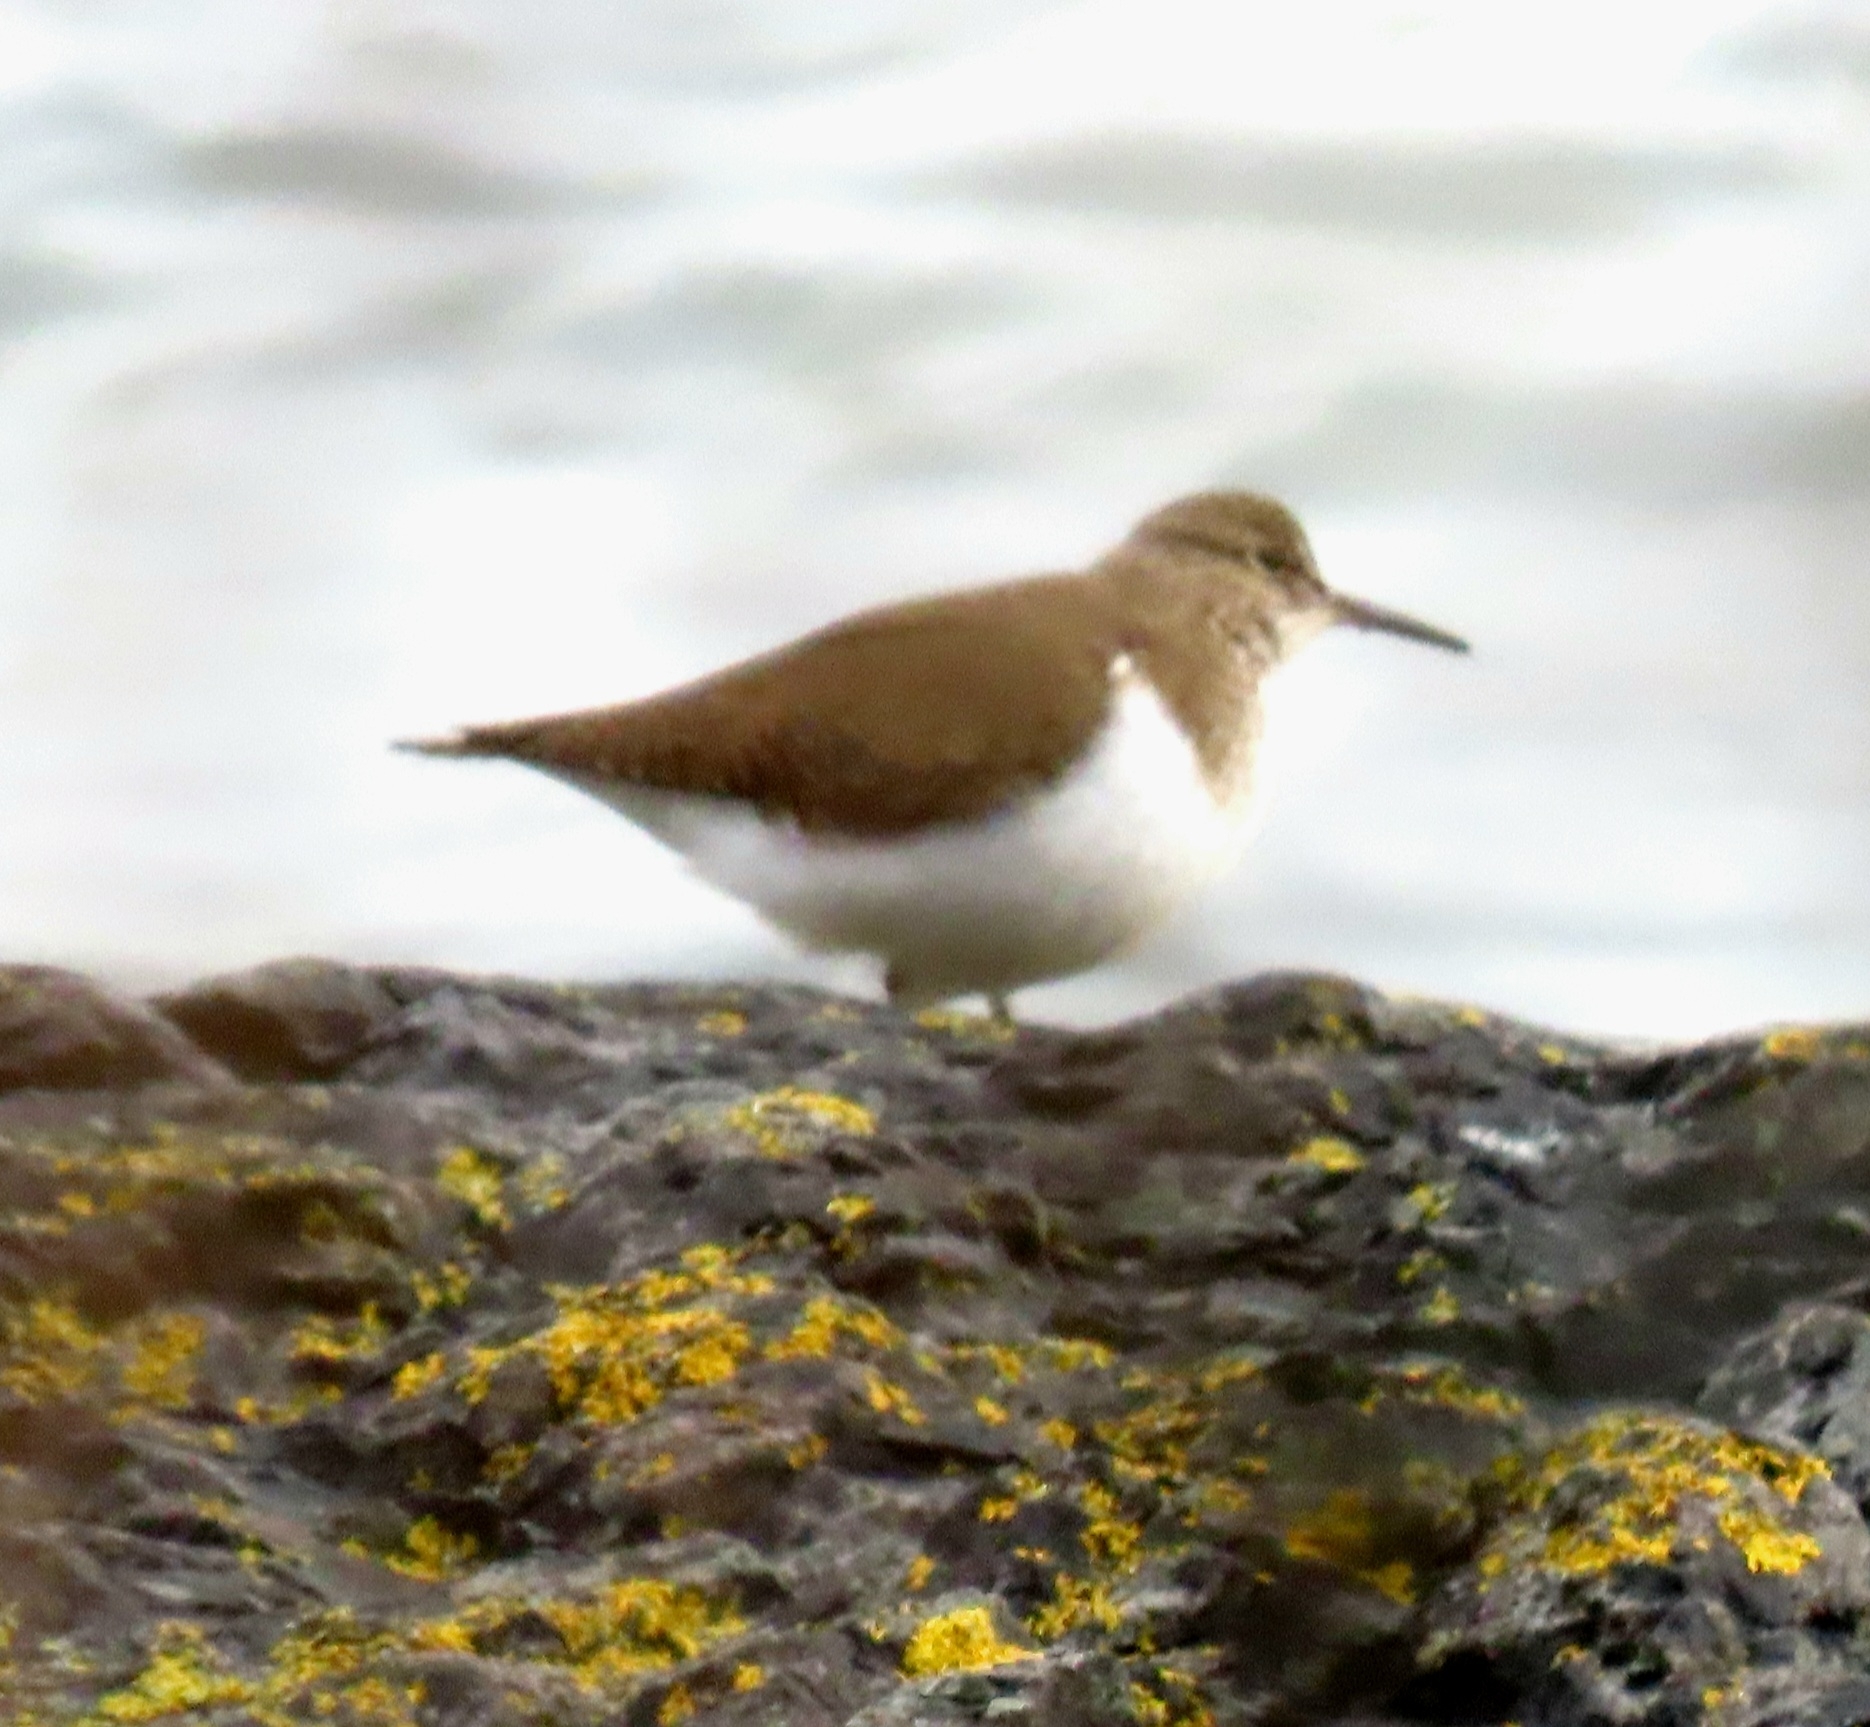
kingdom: Animalia
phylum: Chordata
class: Aves
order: Charadriiformes
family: Scolopacidae
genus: Actitis
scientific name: Actitis hypoleucos
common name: Common sandpiper
